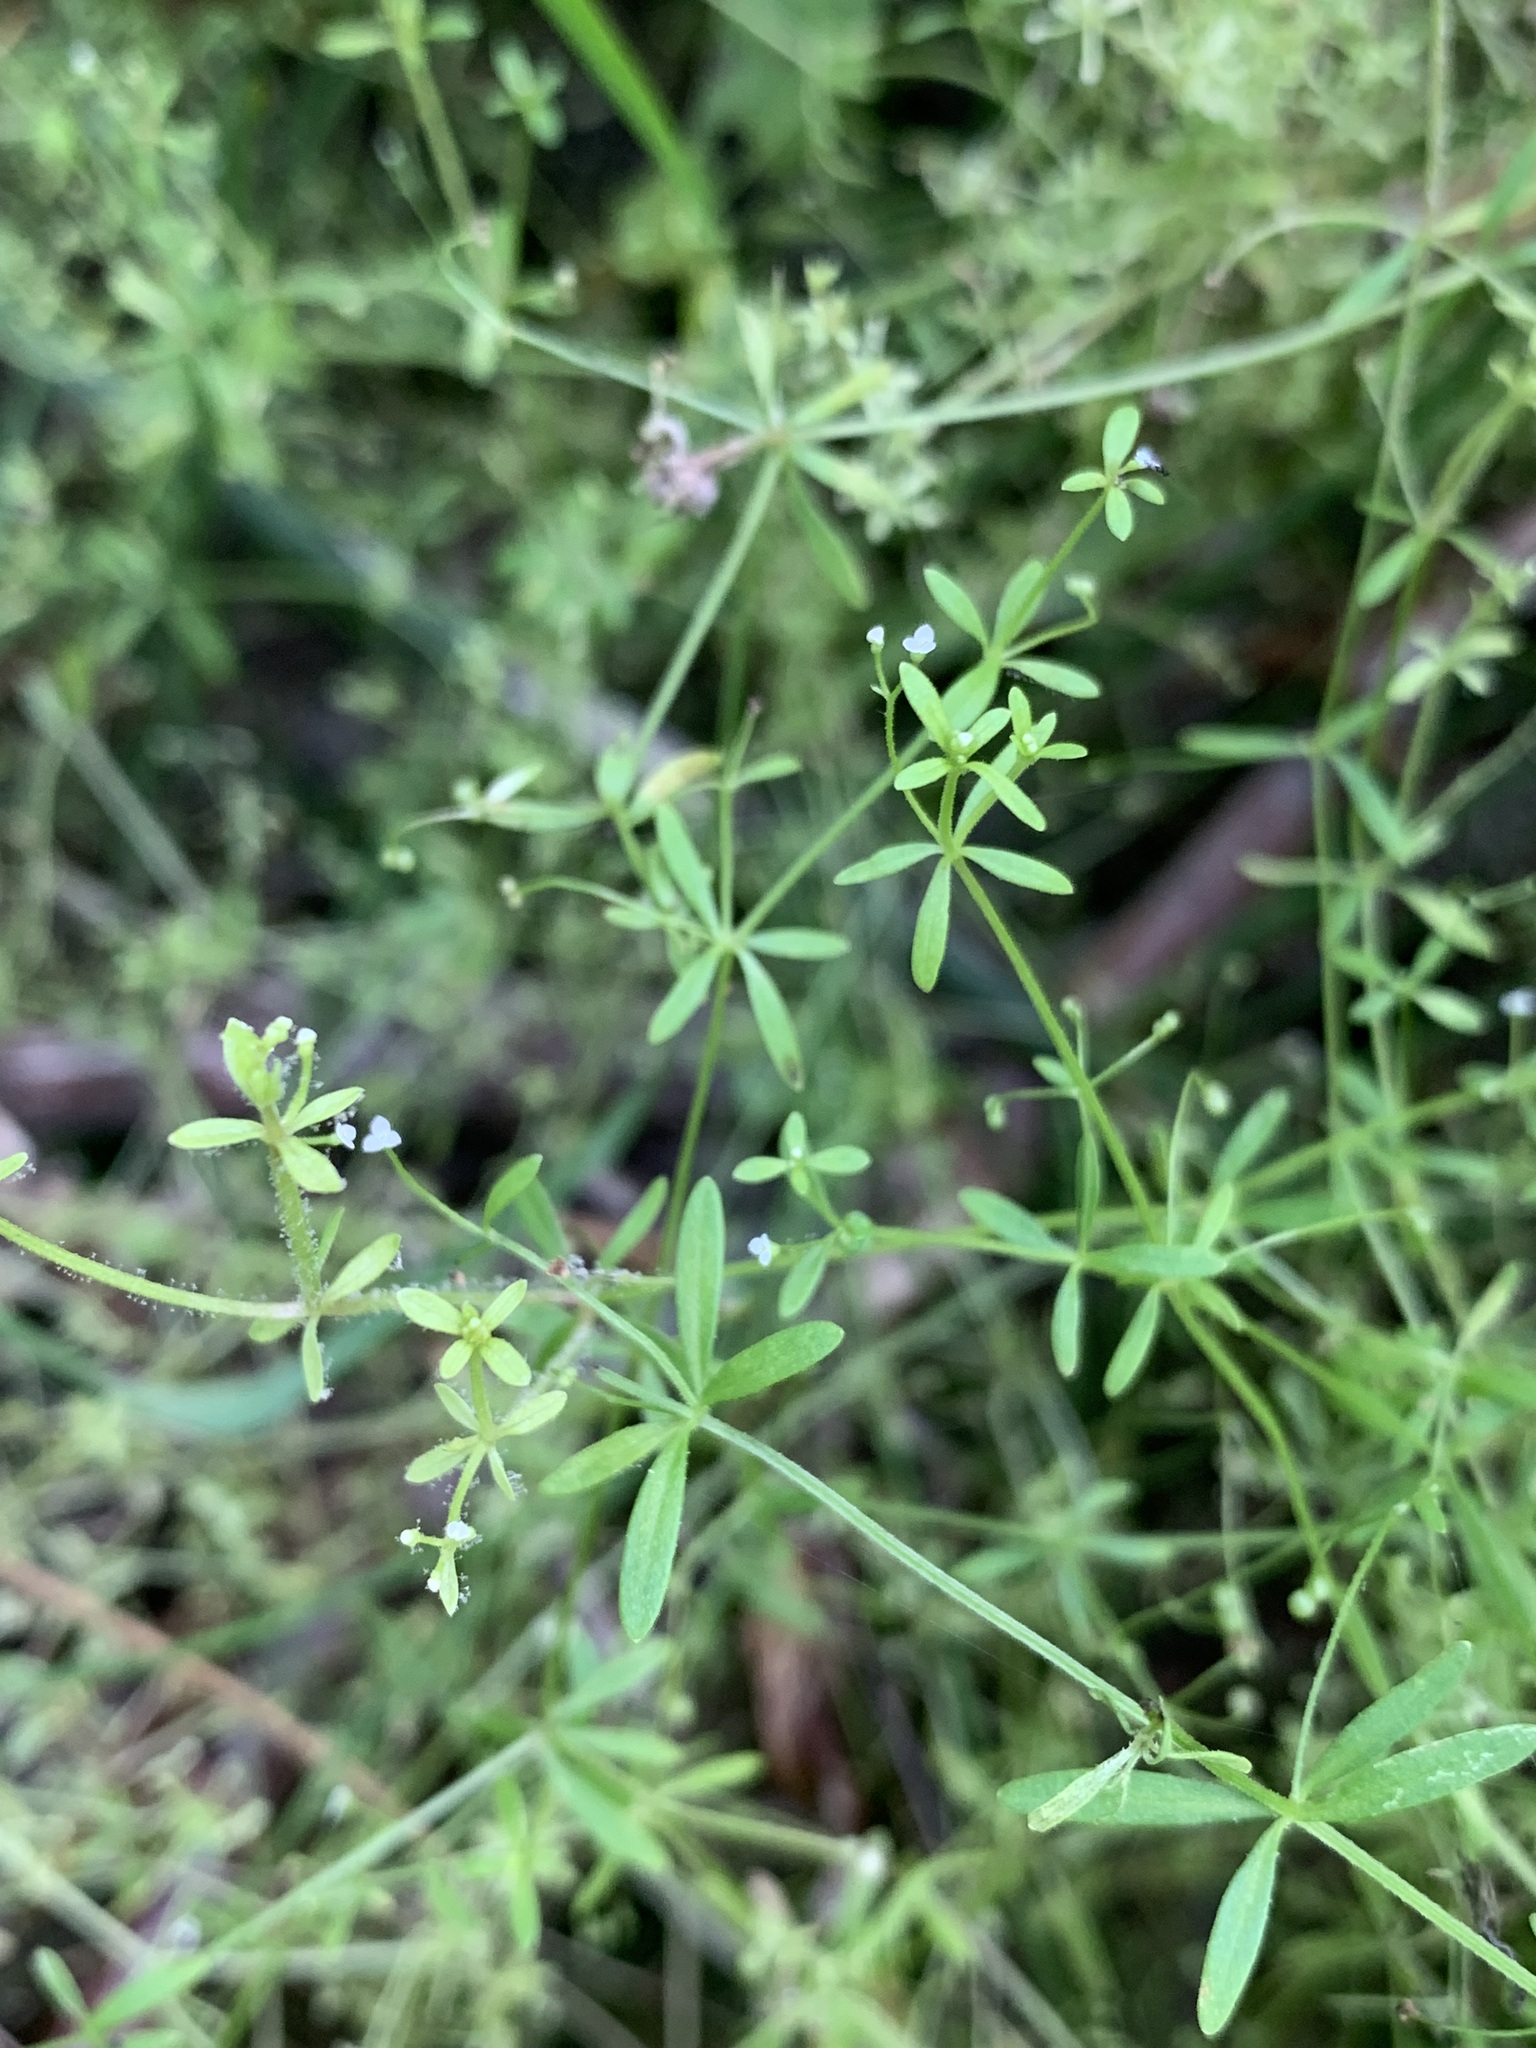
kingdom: Plantae
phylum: Tracheophyta
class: Magnoliopsida
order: Gentianales
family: Rubiaceae
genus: Galium
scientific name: Galium trifidum
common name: Small bedstraw
